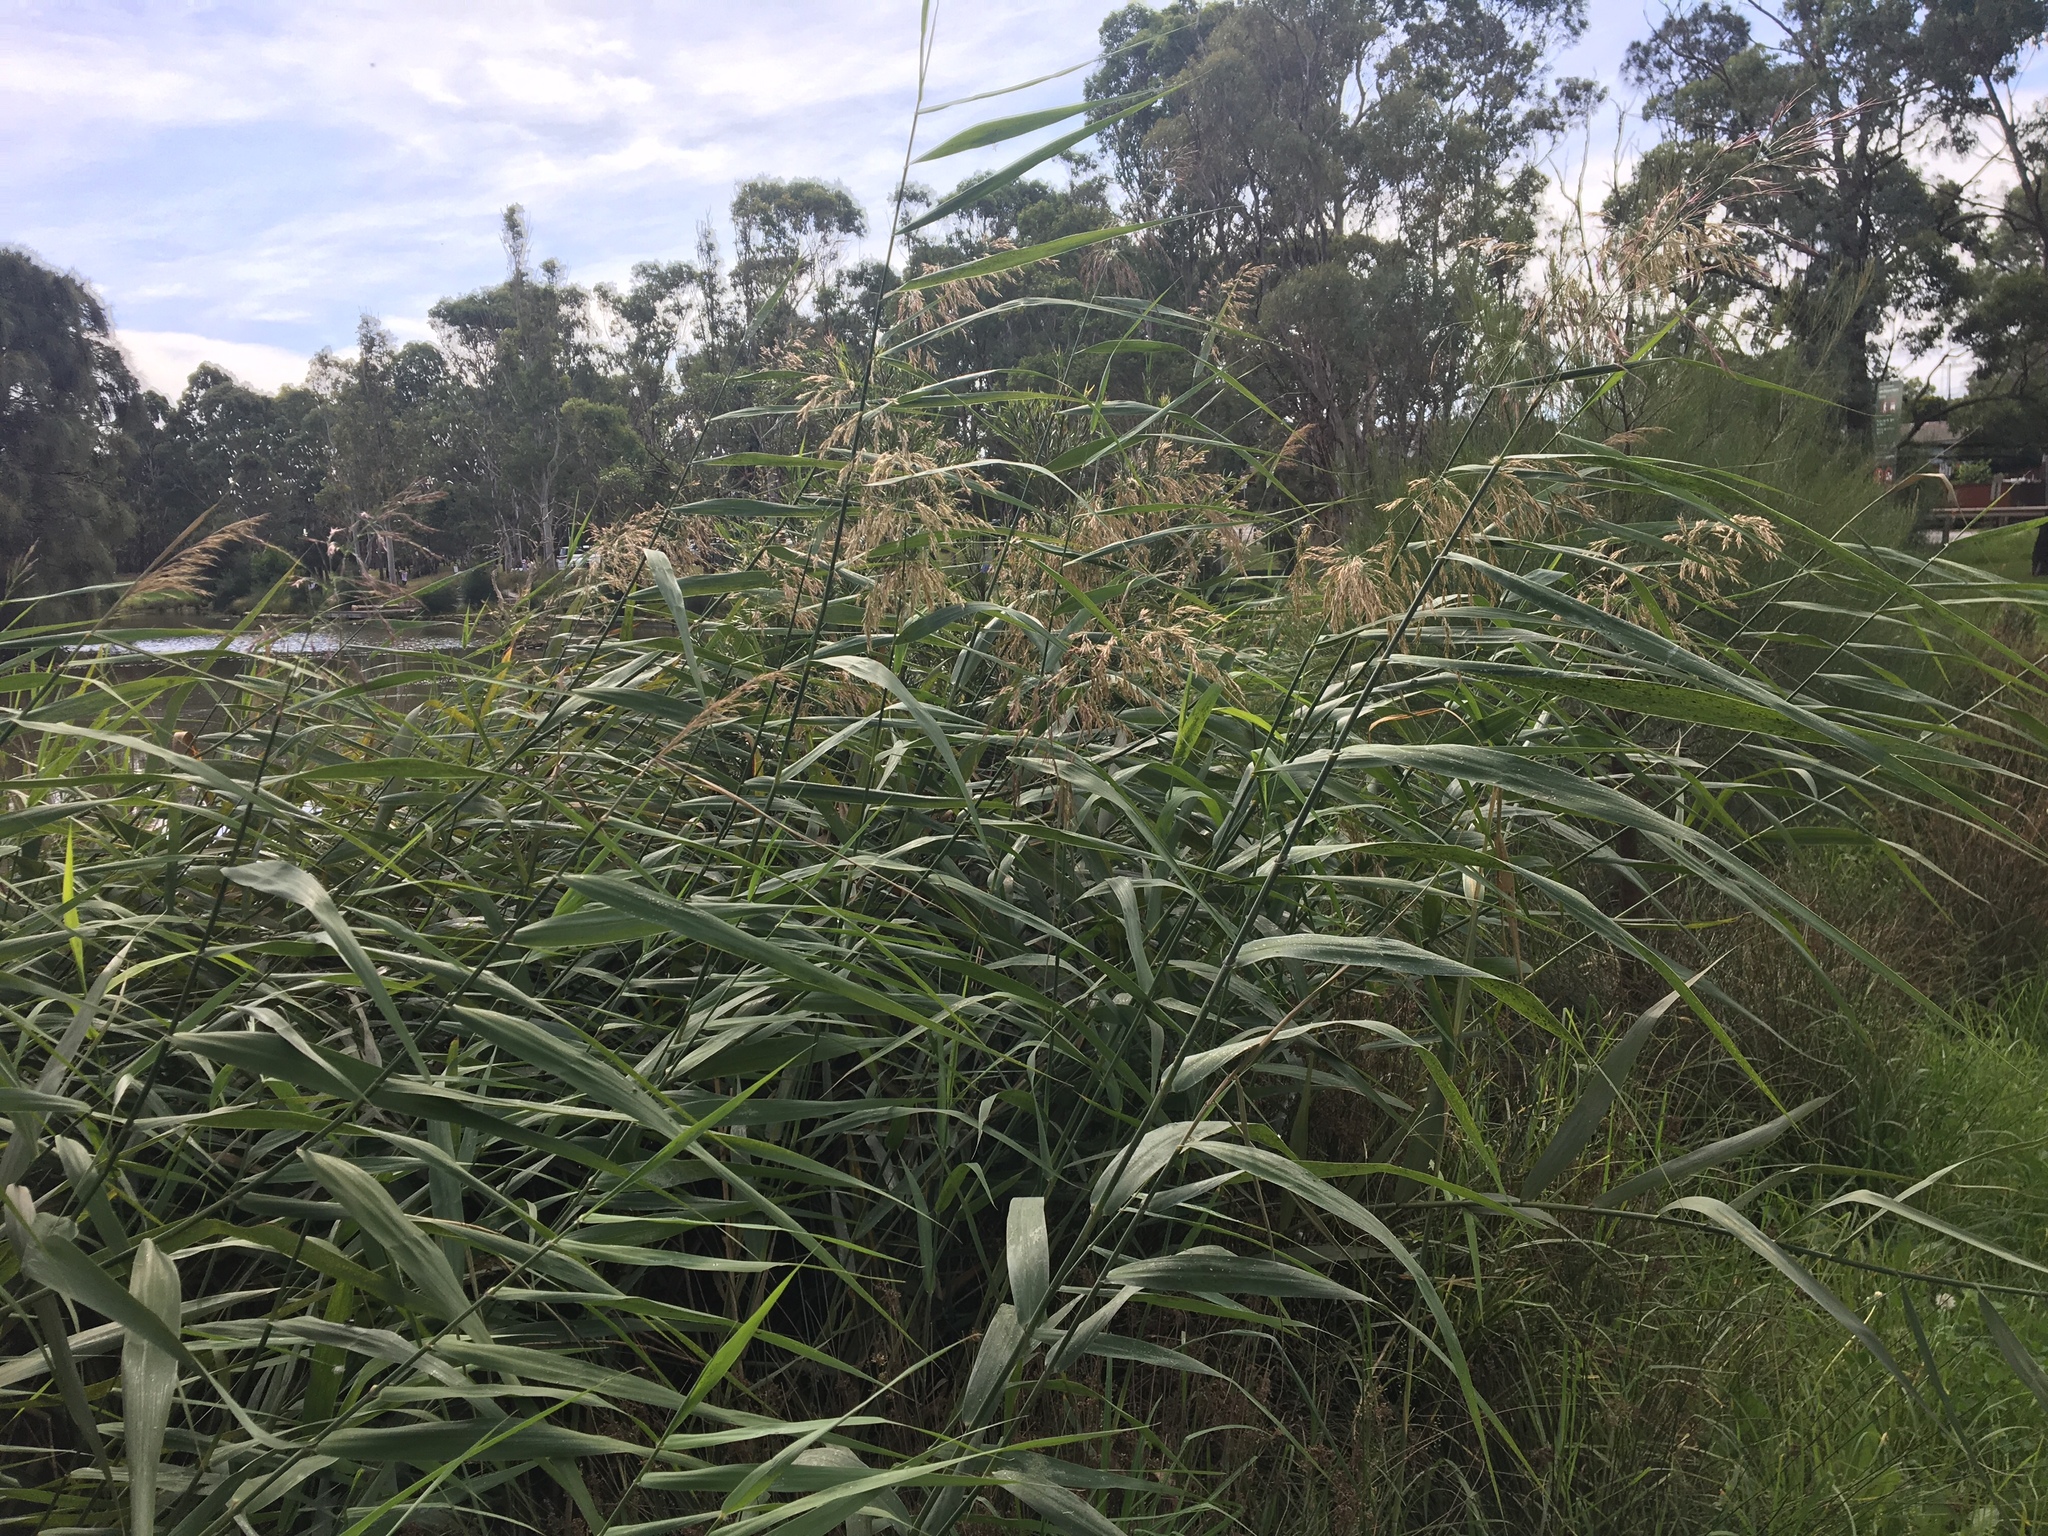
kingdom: Plantae
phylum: Tracheophyta
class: Liliopsida
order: Poales
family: Poaceae
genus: Arundo
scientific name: Arundo donax
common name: Giant reed
